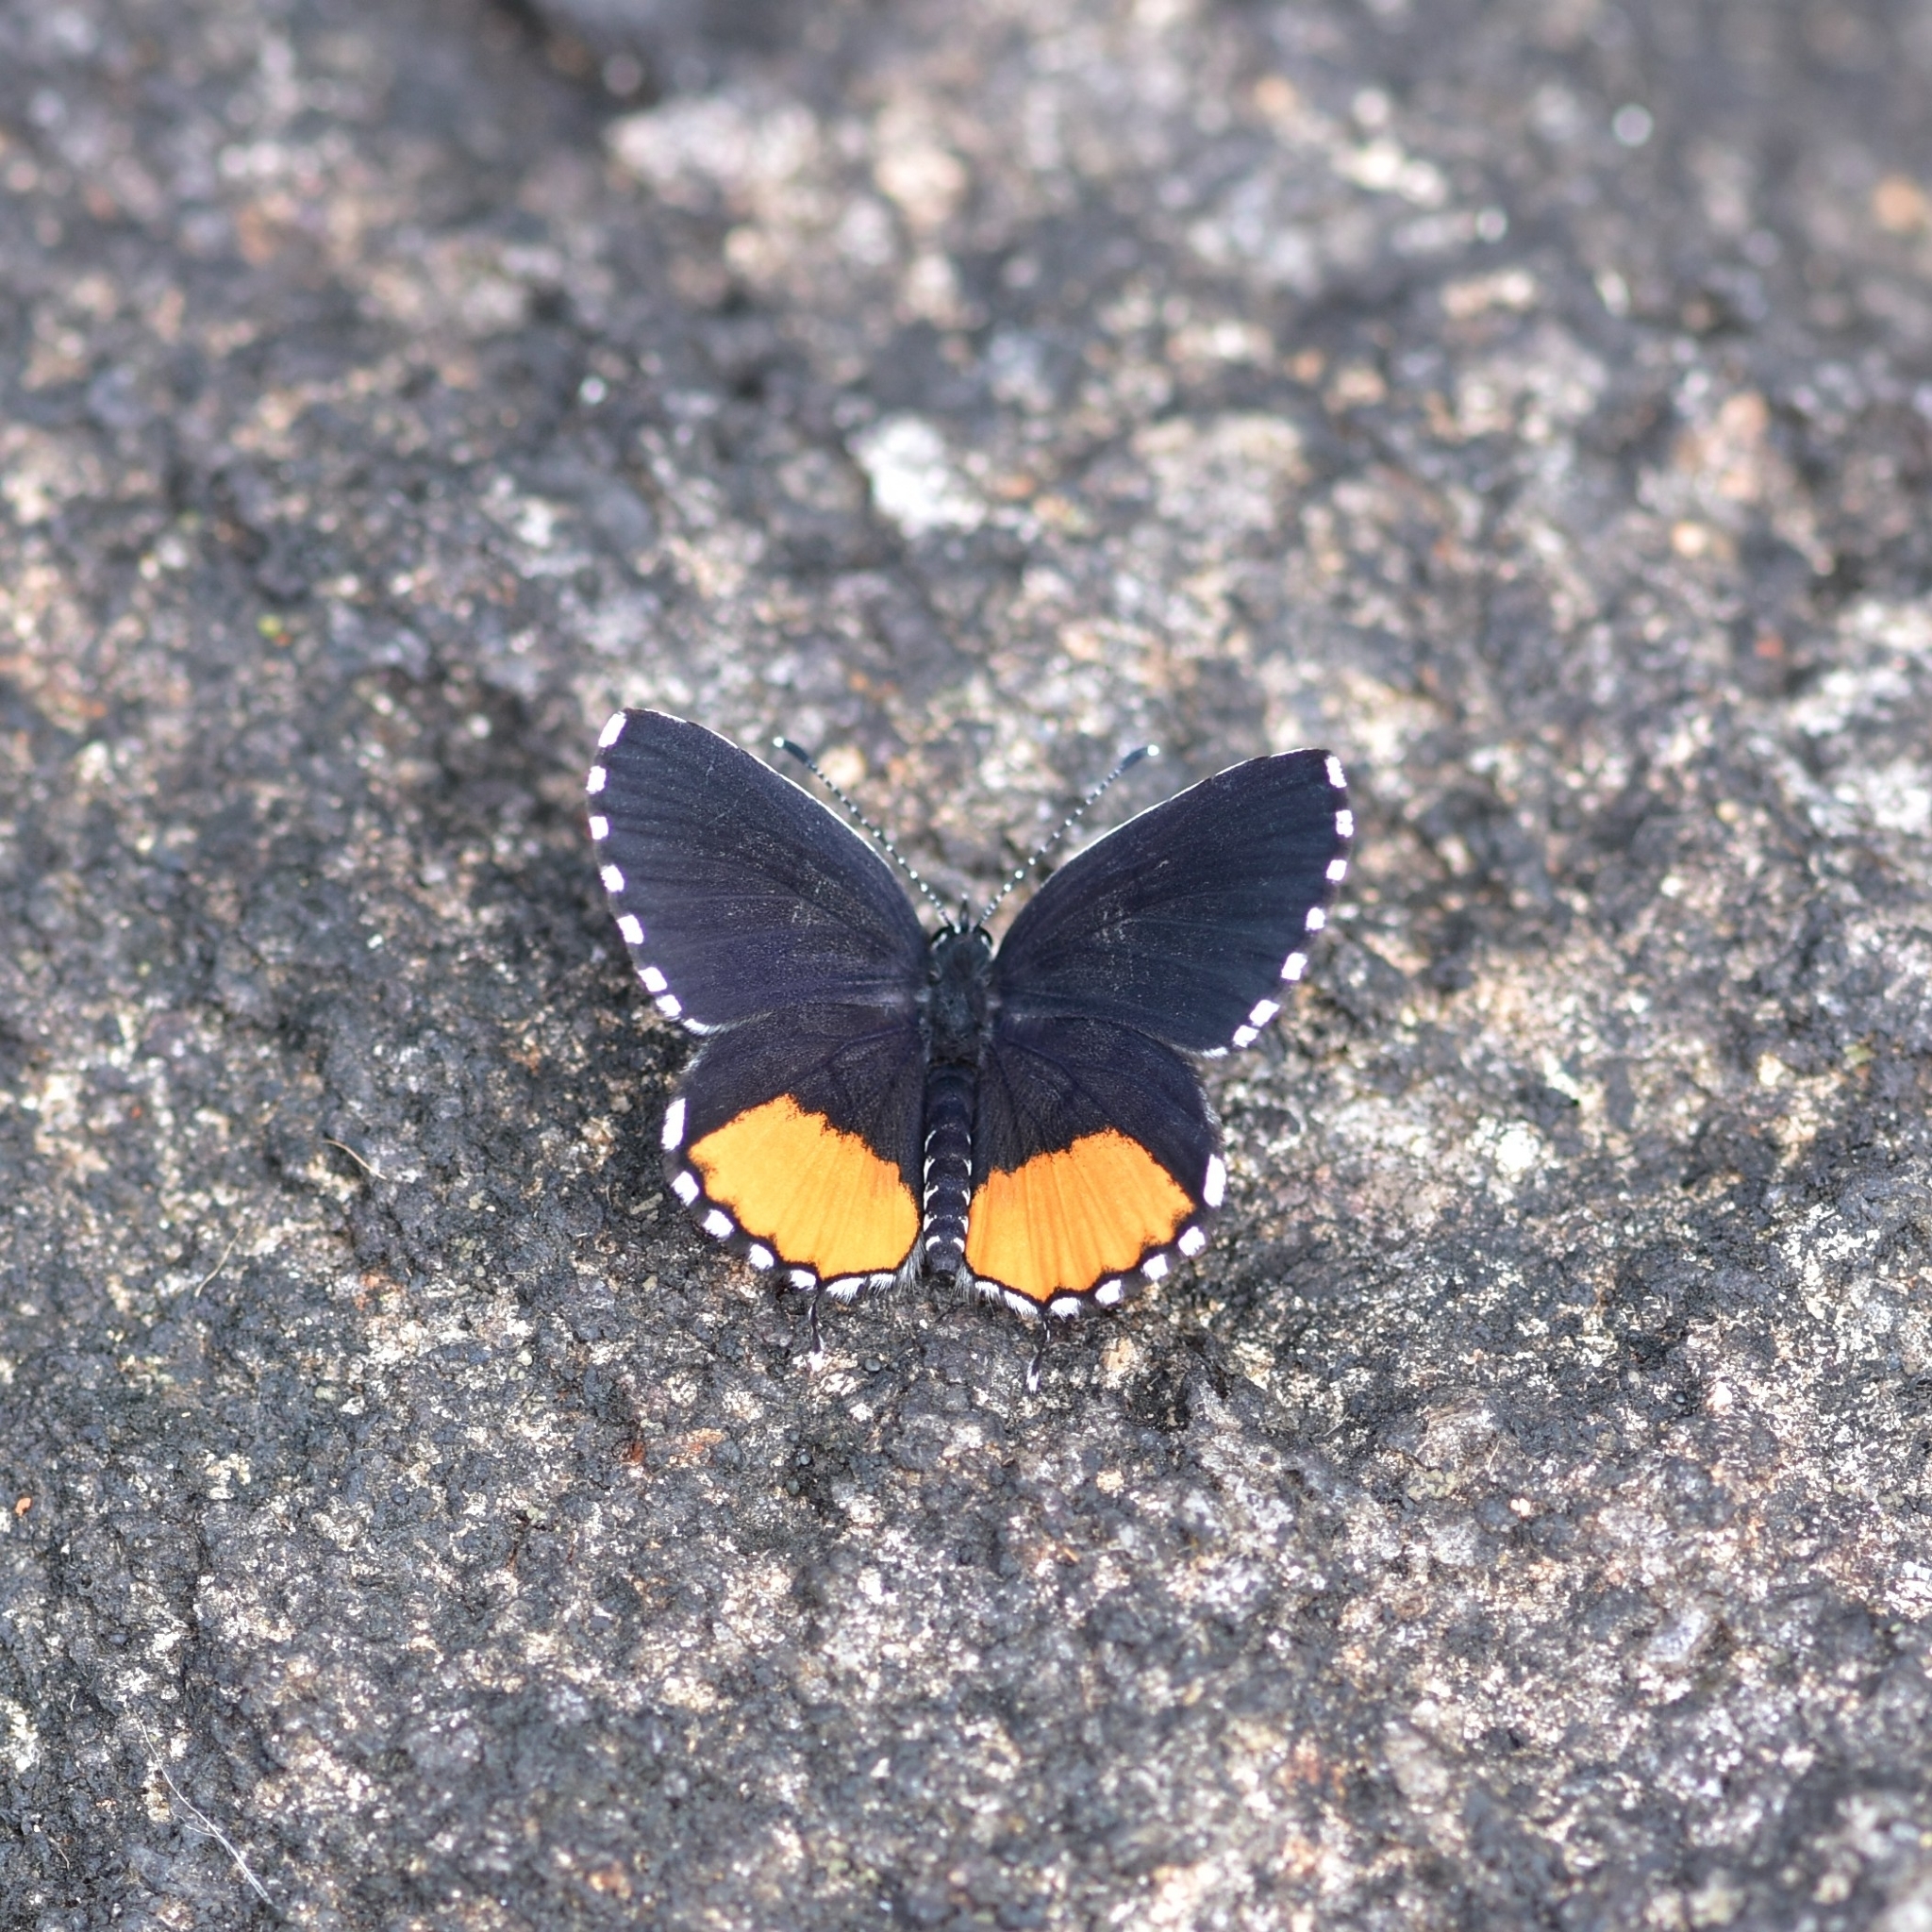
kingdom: Animalia
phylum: Arthropoda
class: Insecta
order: Lepidoptera
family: Lycaenidae
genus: Talicada
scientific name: Talicada nyseus
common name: Red pierrot
